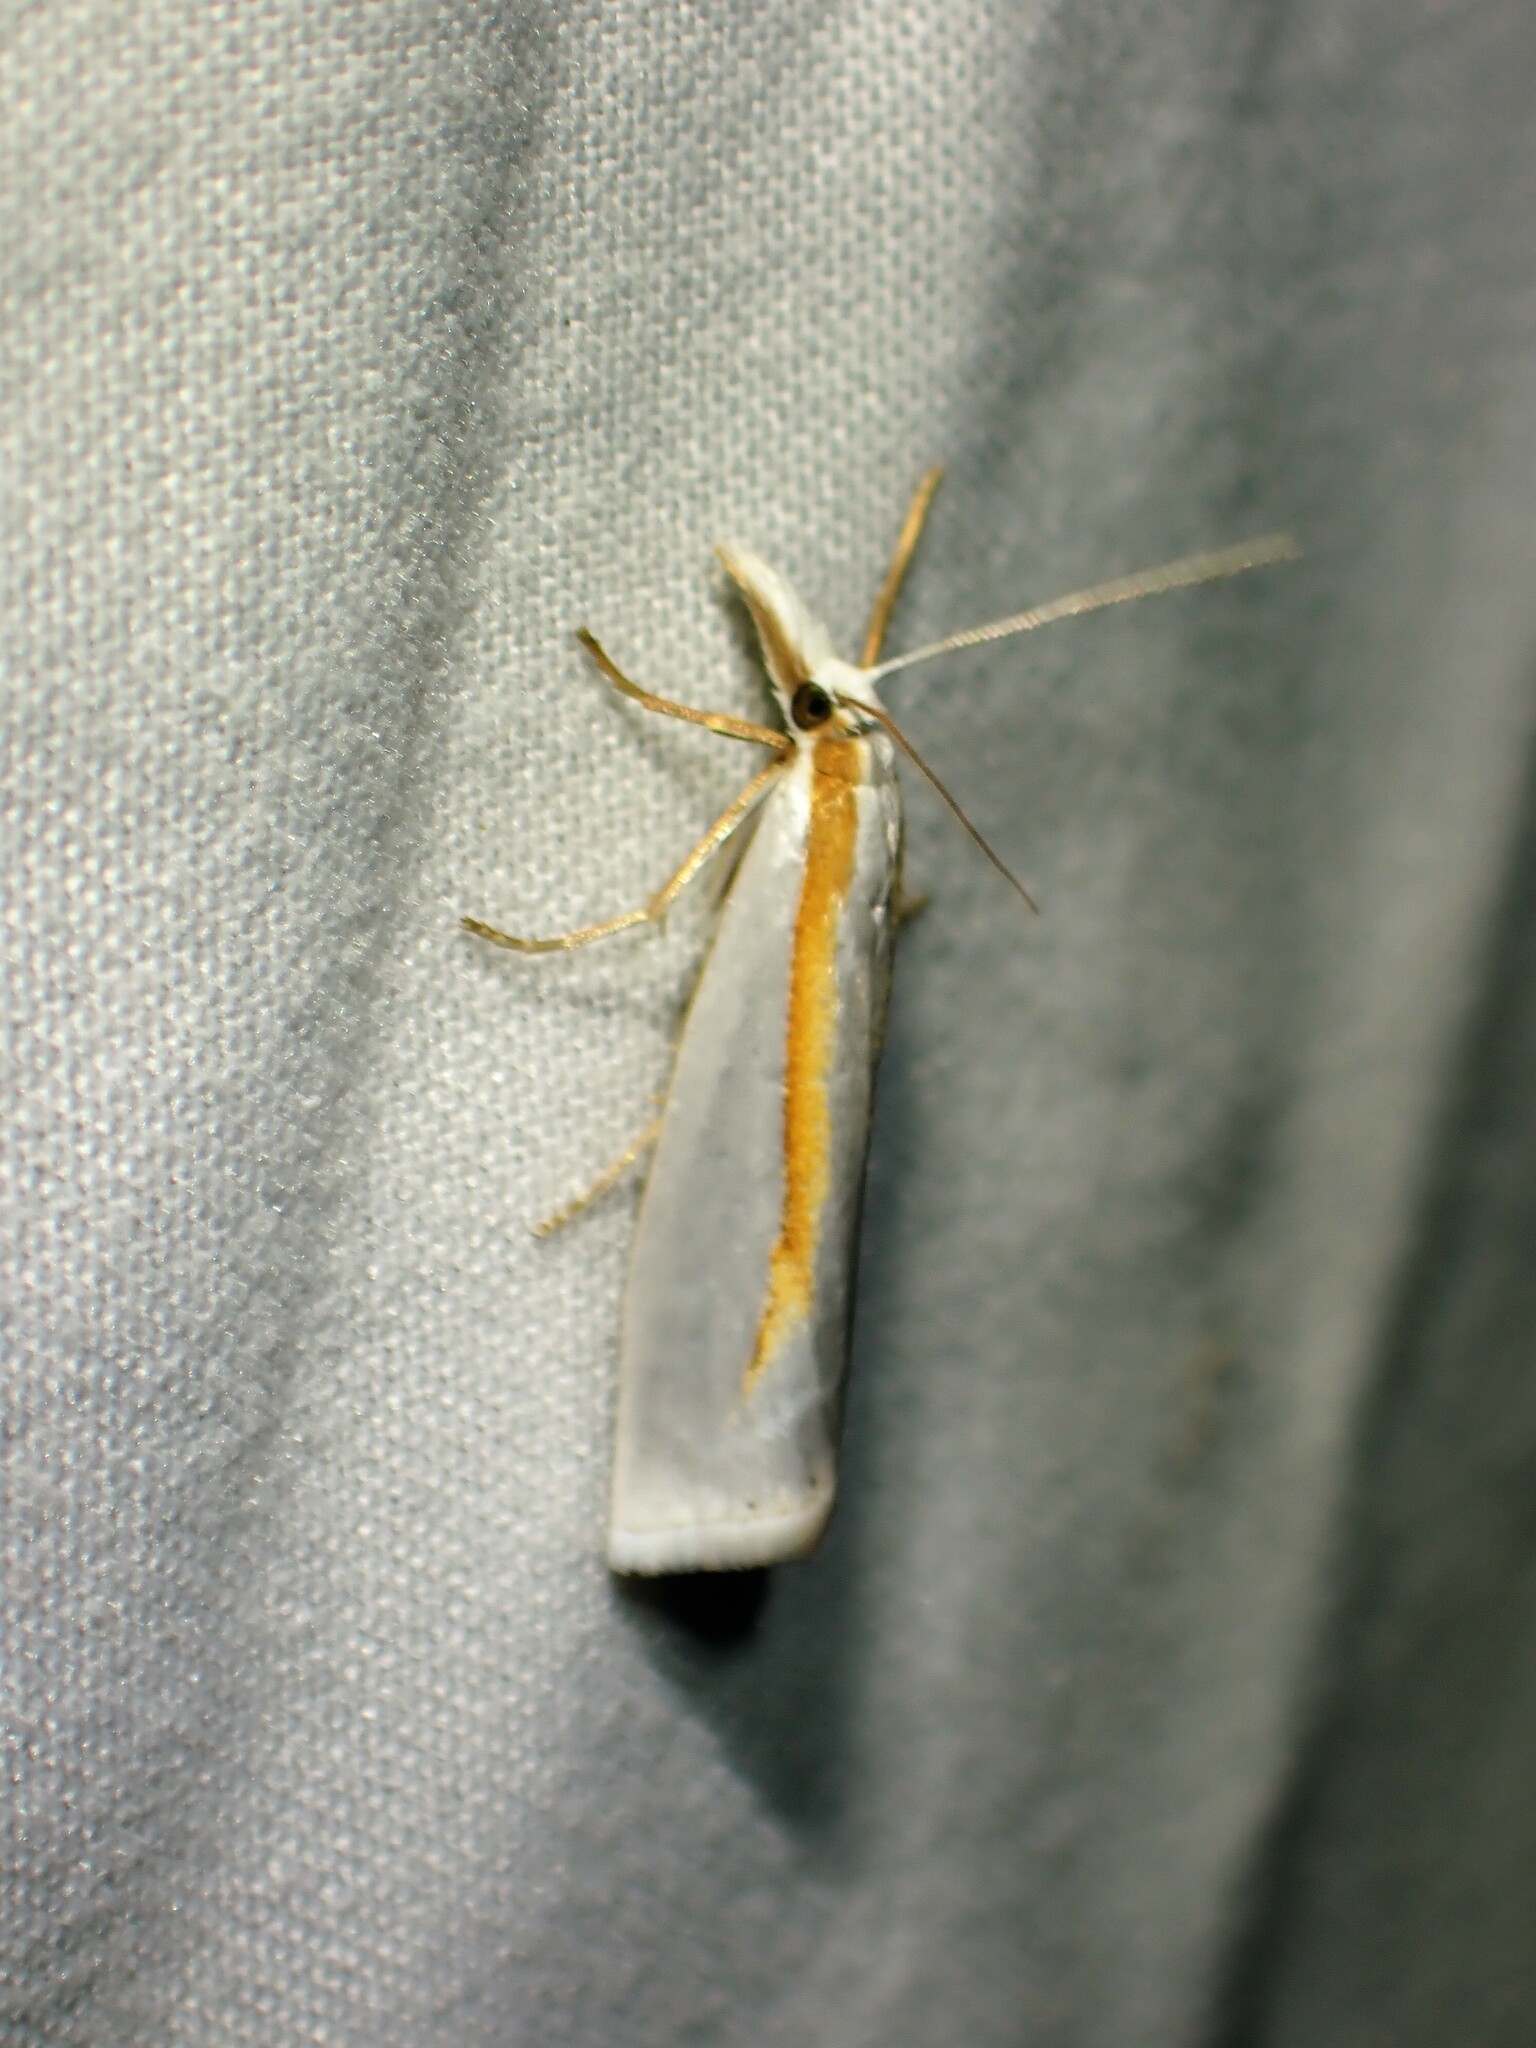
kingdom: Animalia
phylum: Arthropoda
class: Insecta
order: Lepidoptera
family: Crambidae
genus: Crambus
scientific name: Crambus girardellus
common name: Girard's grass-veneer
